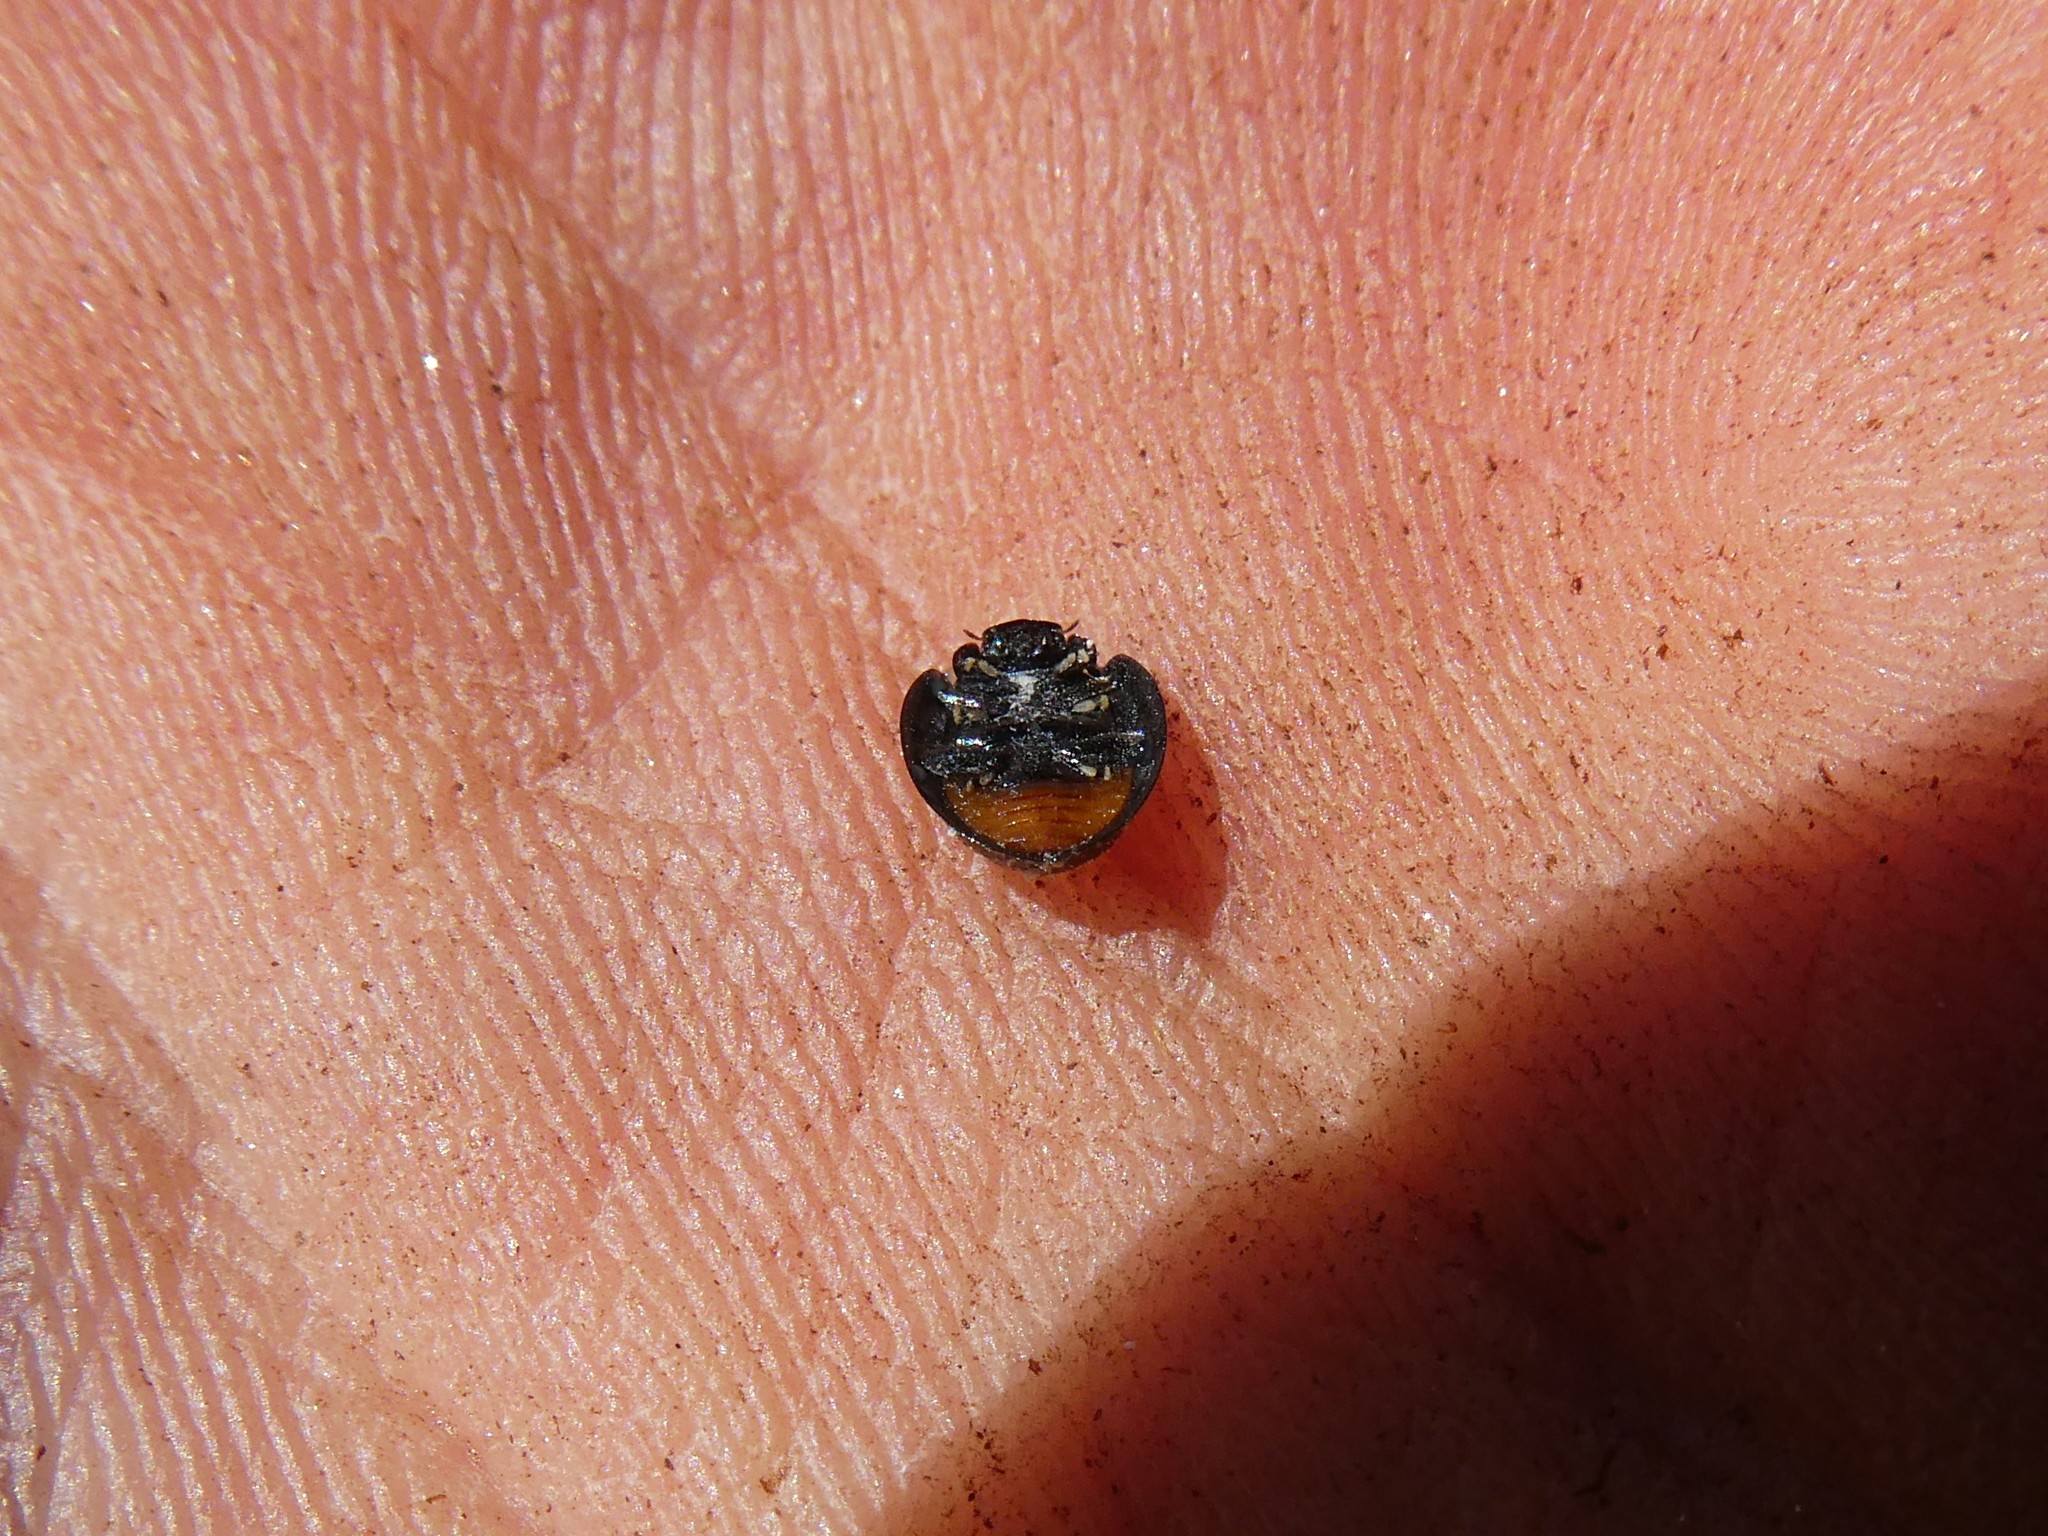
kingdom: Animalia
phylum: Arthropoda
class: Insecta
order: Coleoptera
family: Coccinellidae
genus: Chilocorus
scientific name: Chilocorus stigma
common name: Twicestabbed lady beetle
